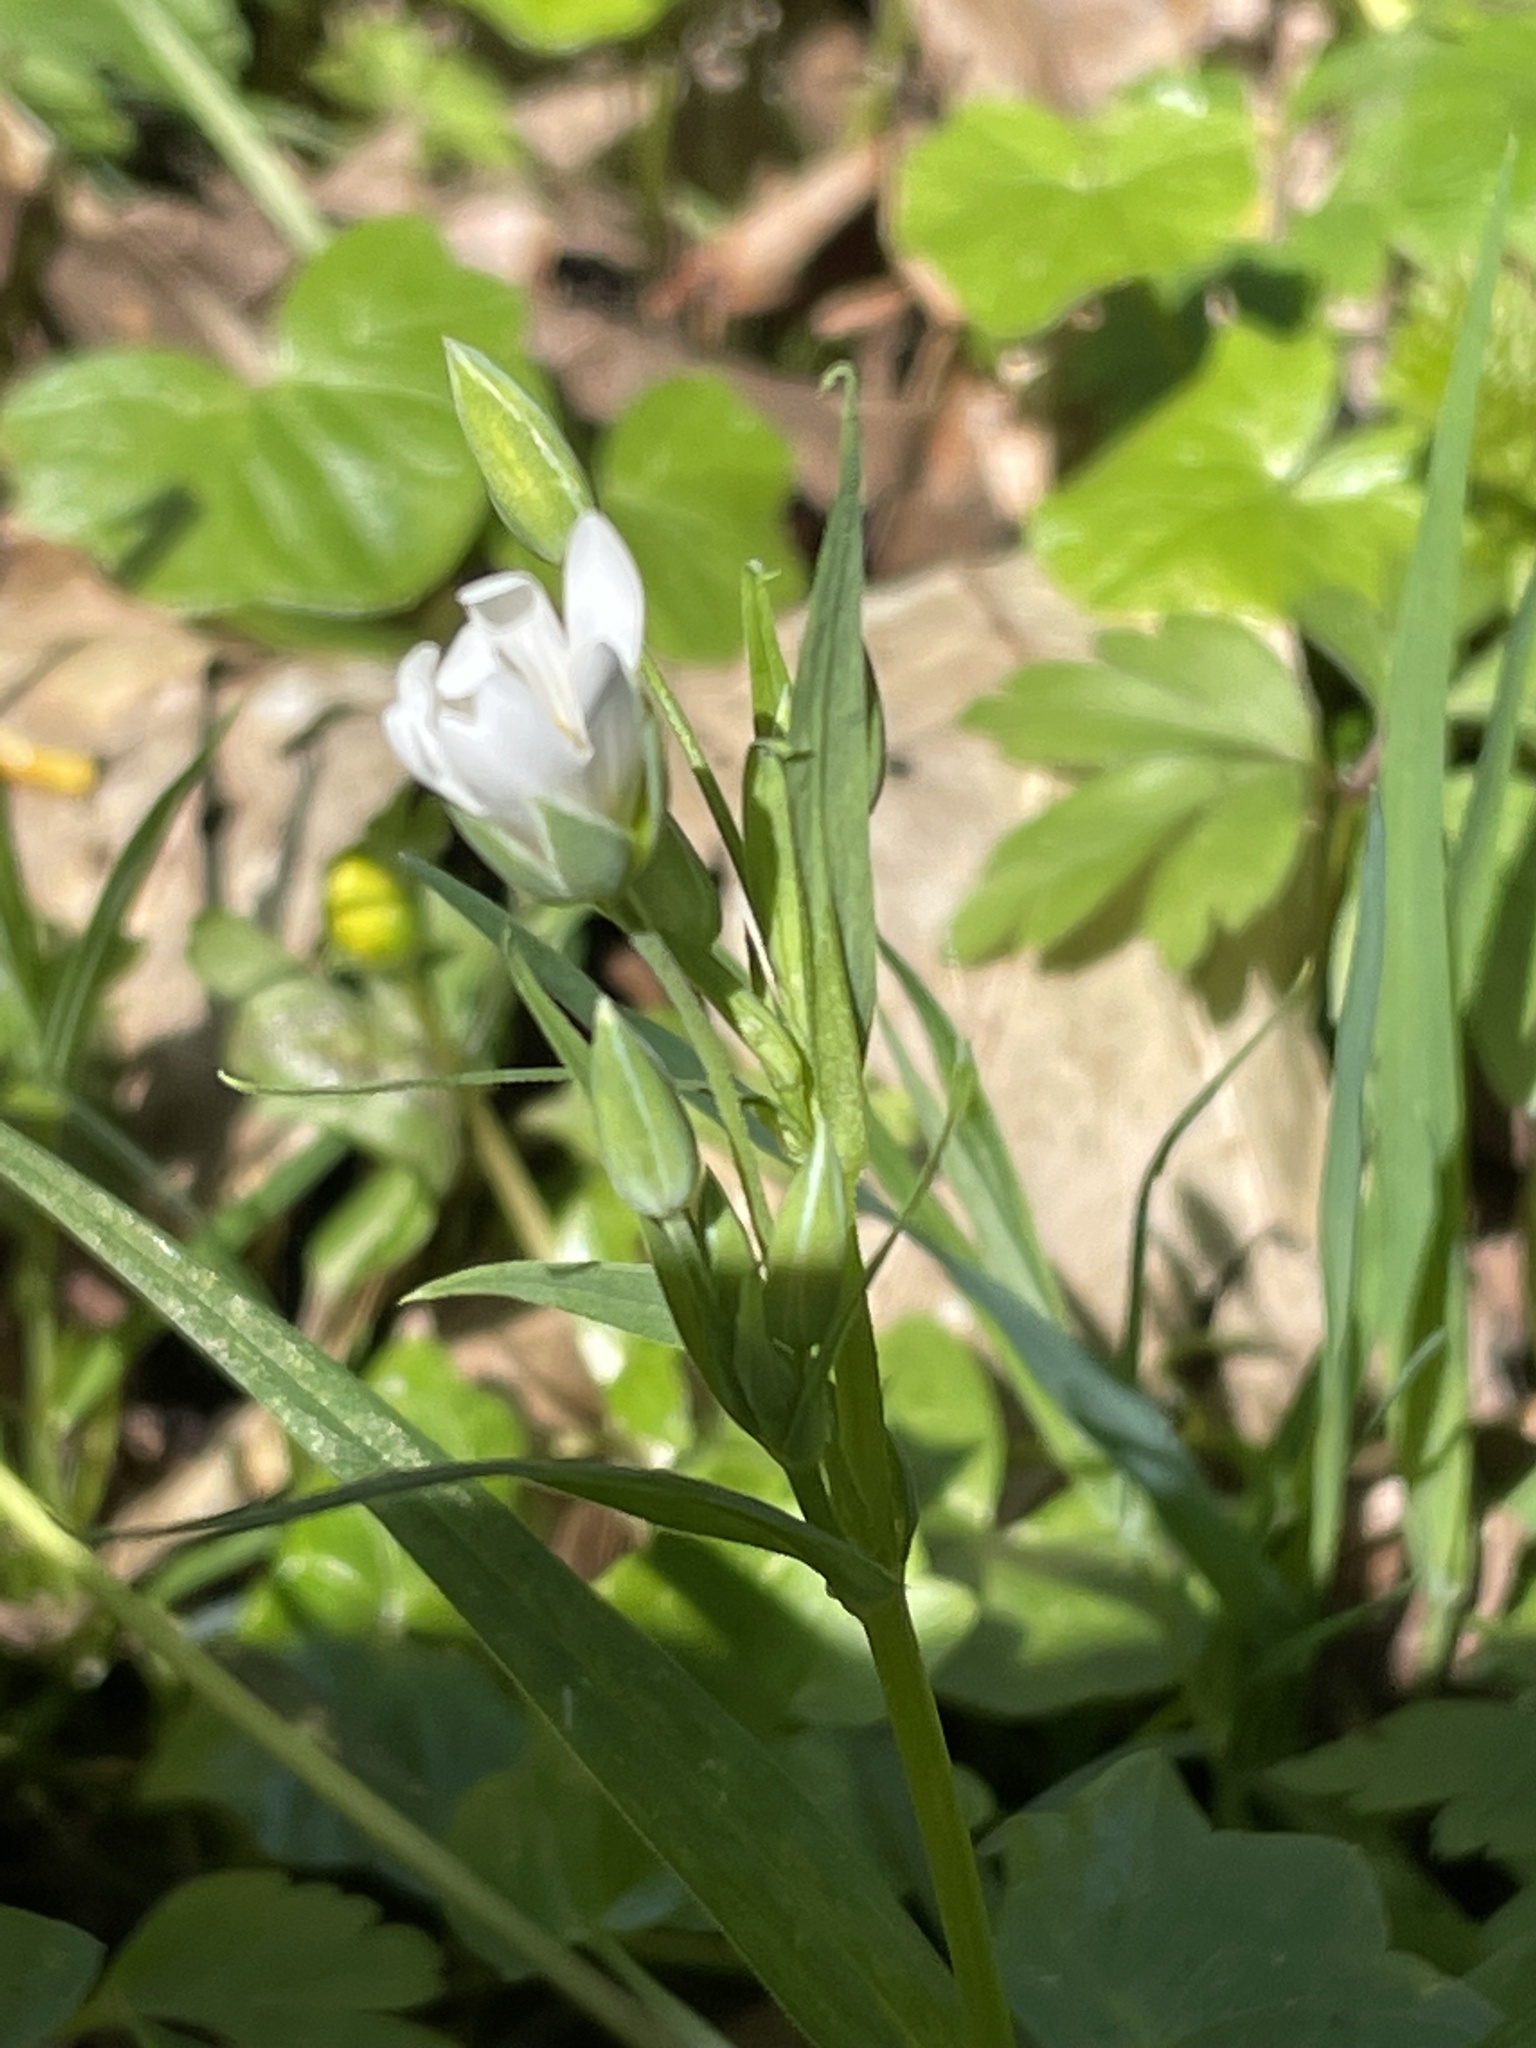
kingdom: Plantae
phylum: Tracheophyta
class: Magnoliopsida
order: Caryophyllales
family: Caryophyllaceae
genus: Rabelera
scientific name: Rabelera holostea
